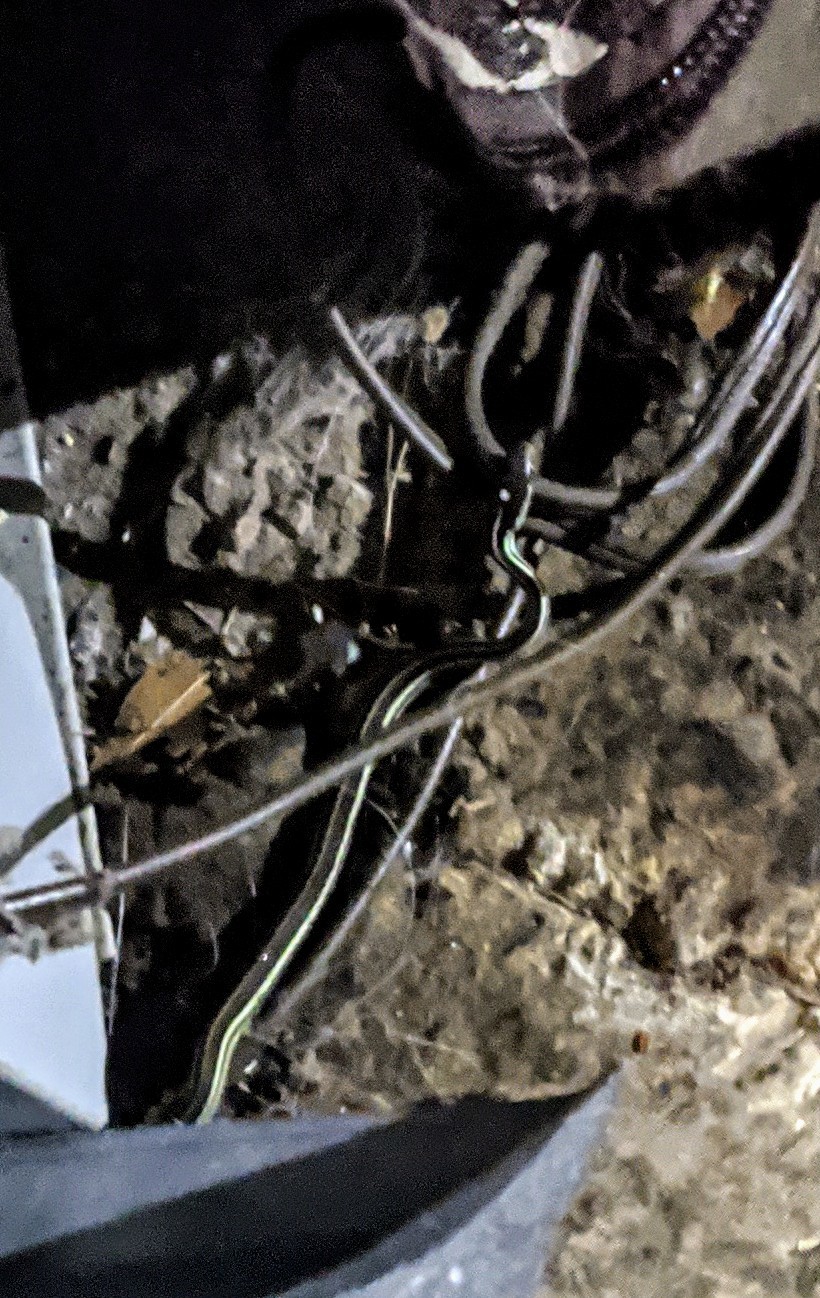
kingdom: Animalia
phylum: Chordata
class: Squamata
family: Colubridae
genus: Thamnophis
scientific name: Thamnophis proximus
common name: Western ribbon snake
